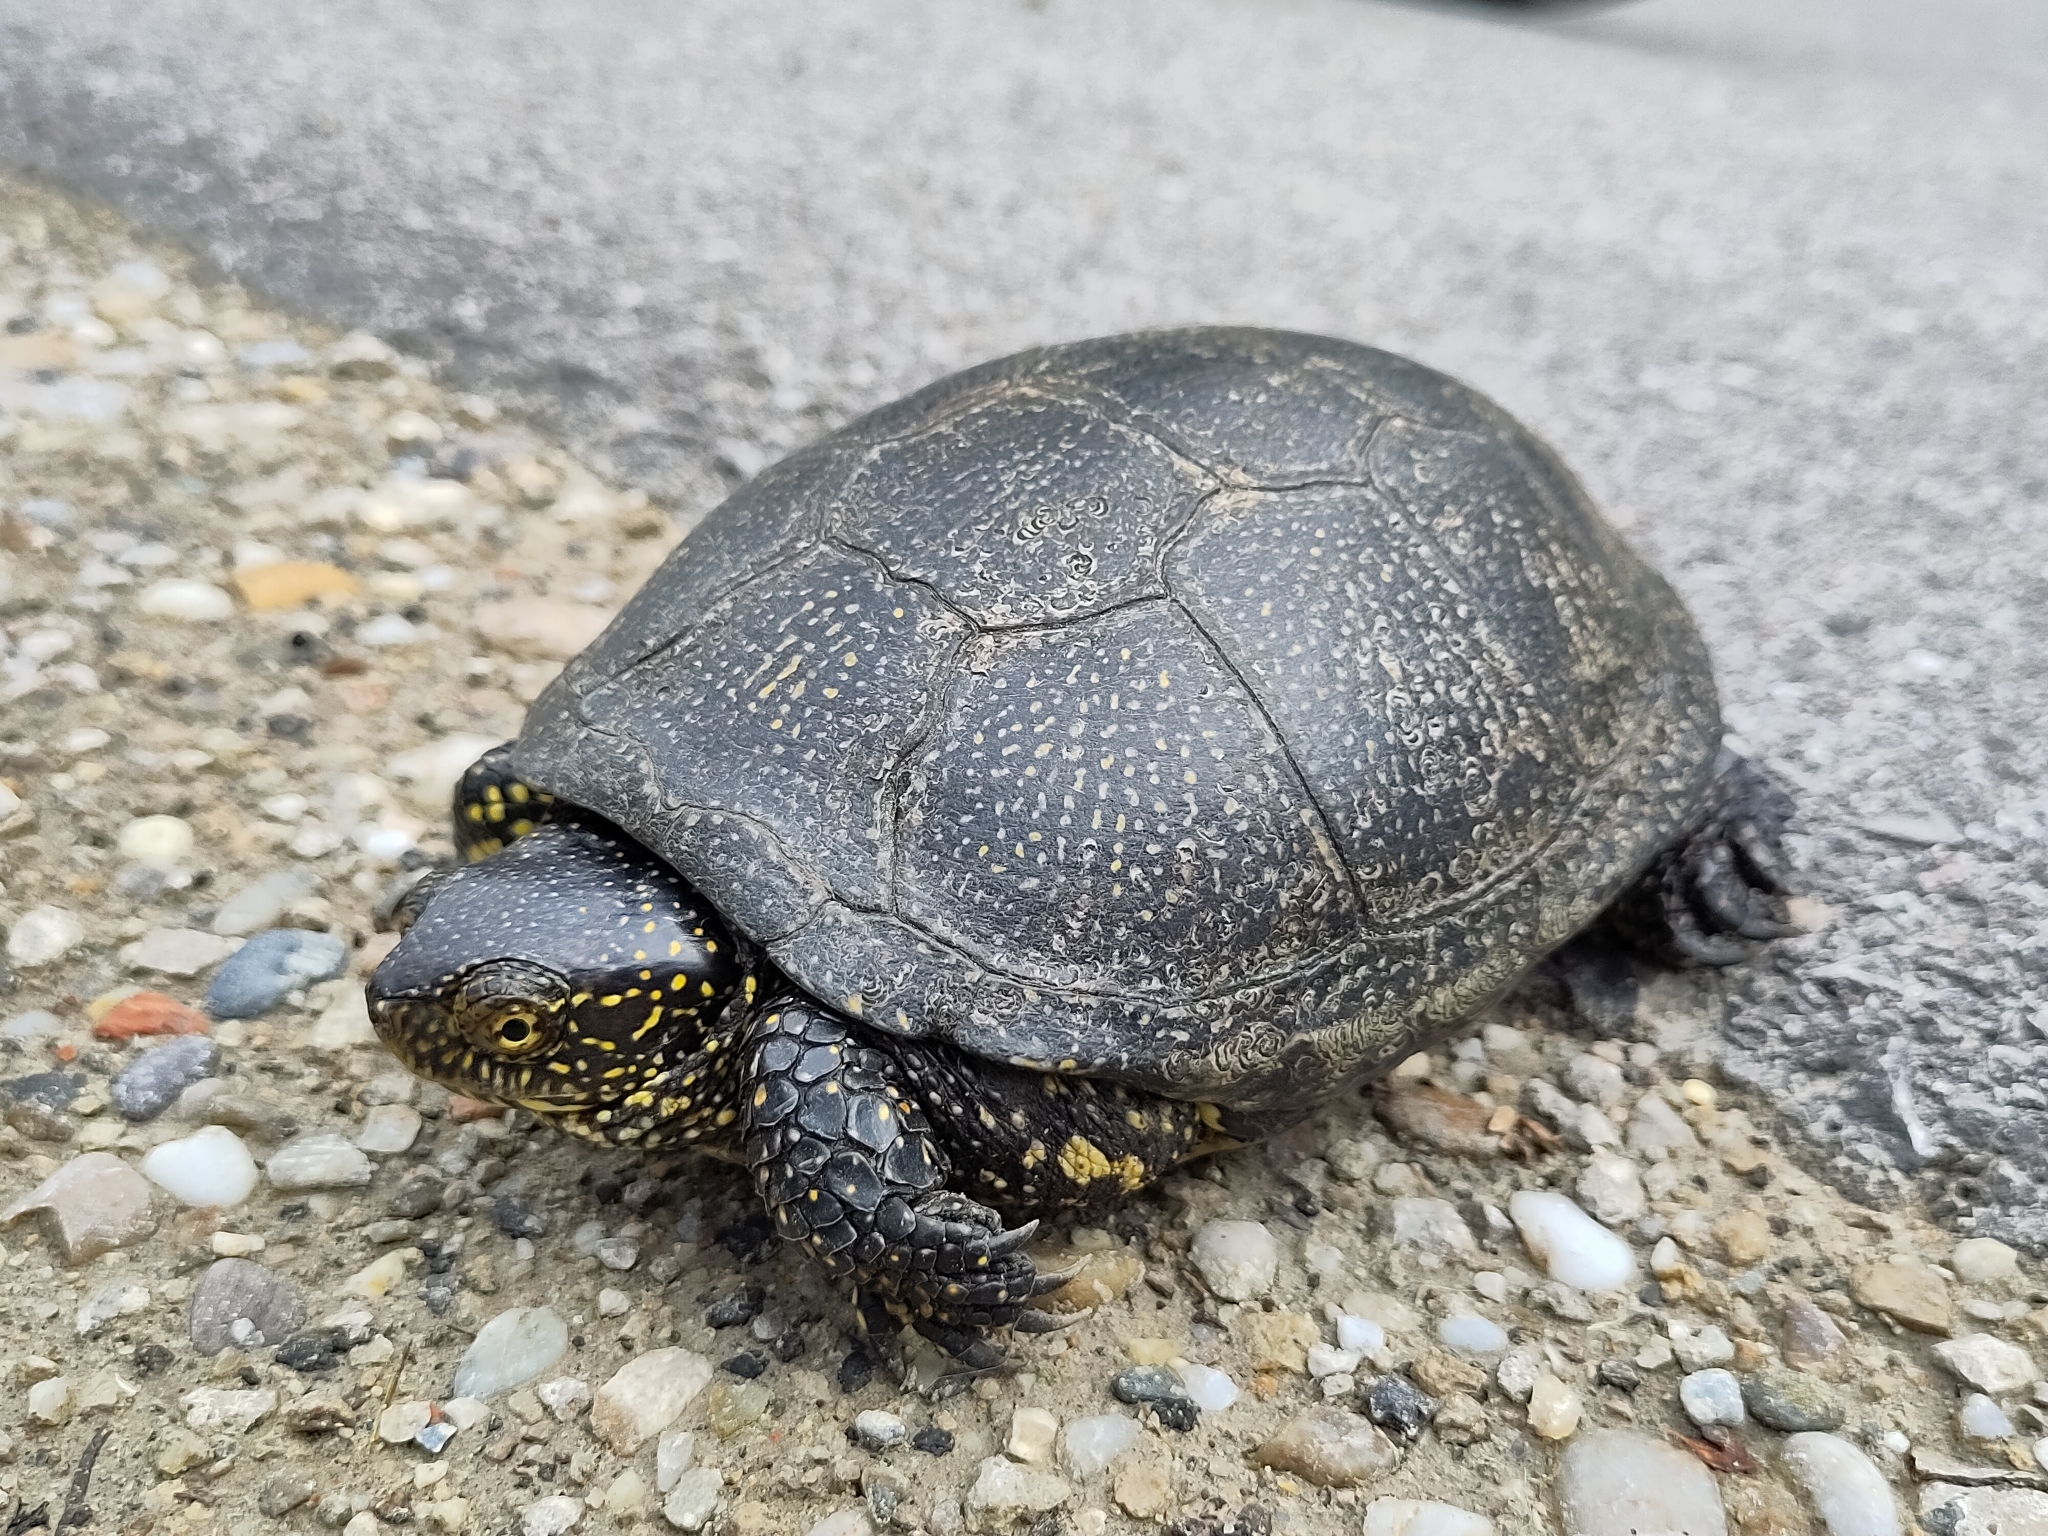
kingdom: Animalia
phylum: Chordata
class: Testudines
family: Emydidae
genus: Emys
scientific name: Emys orbicularis
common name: European pond turtle
